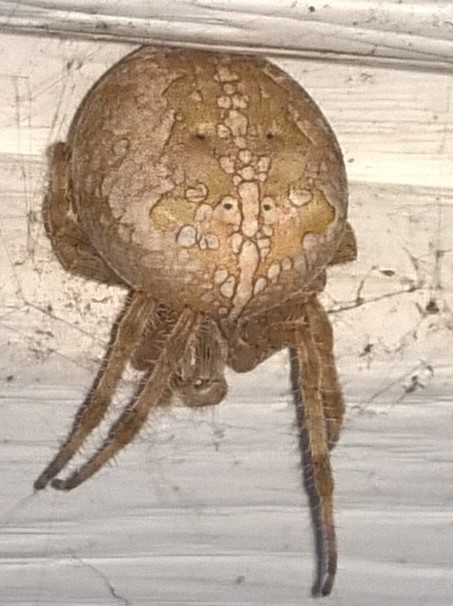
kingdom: Animalia
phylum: Arthropoda
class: Arachnida
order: Araneae
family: Araneidae
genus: Araneus
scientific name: Araneus diadematus
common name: Cross orbweaver
